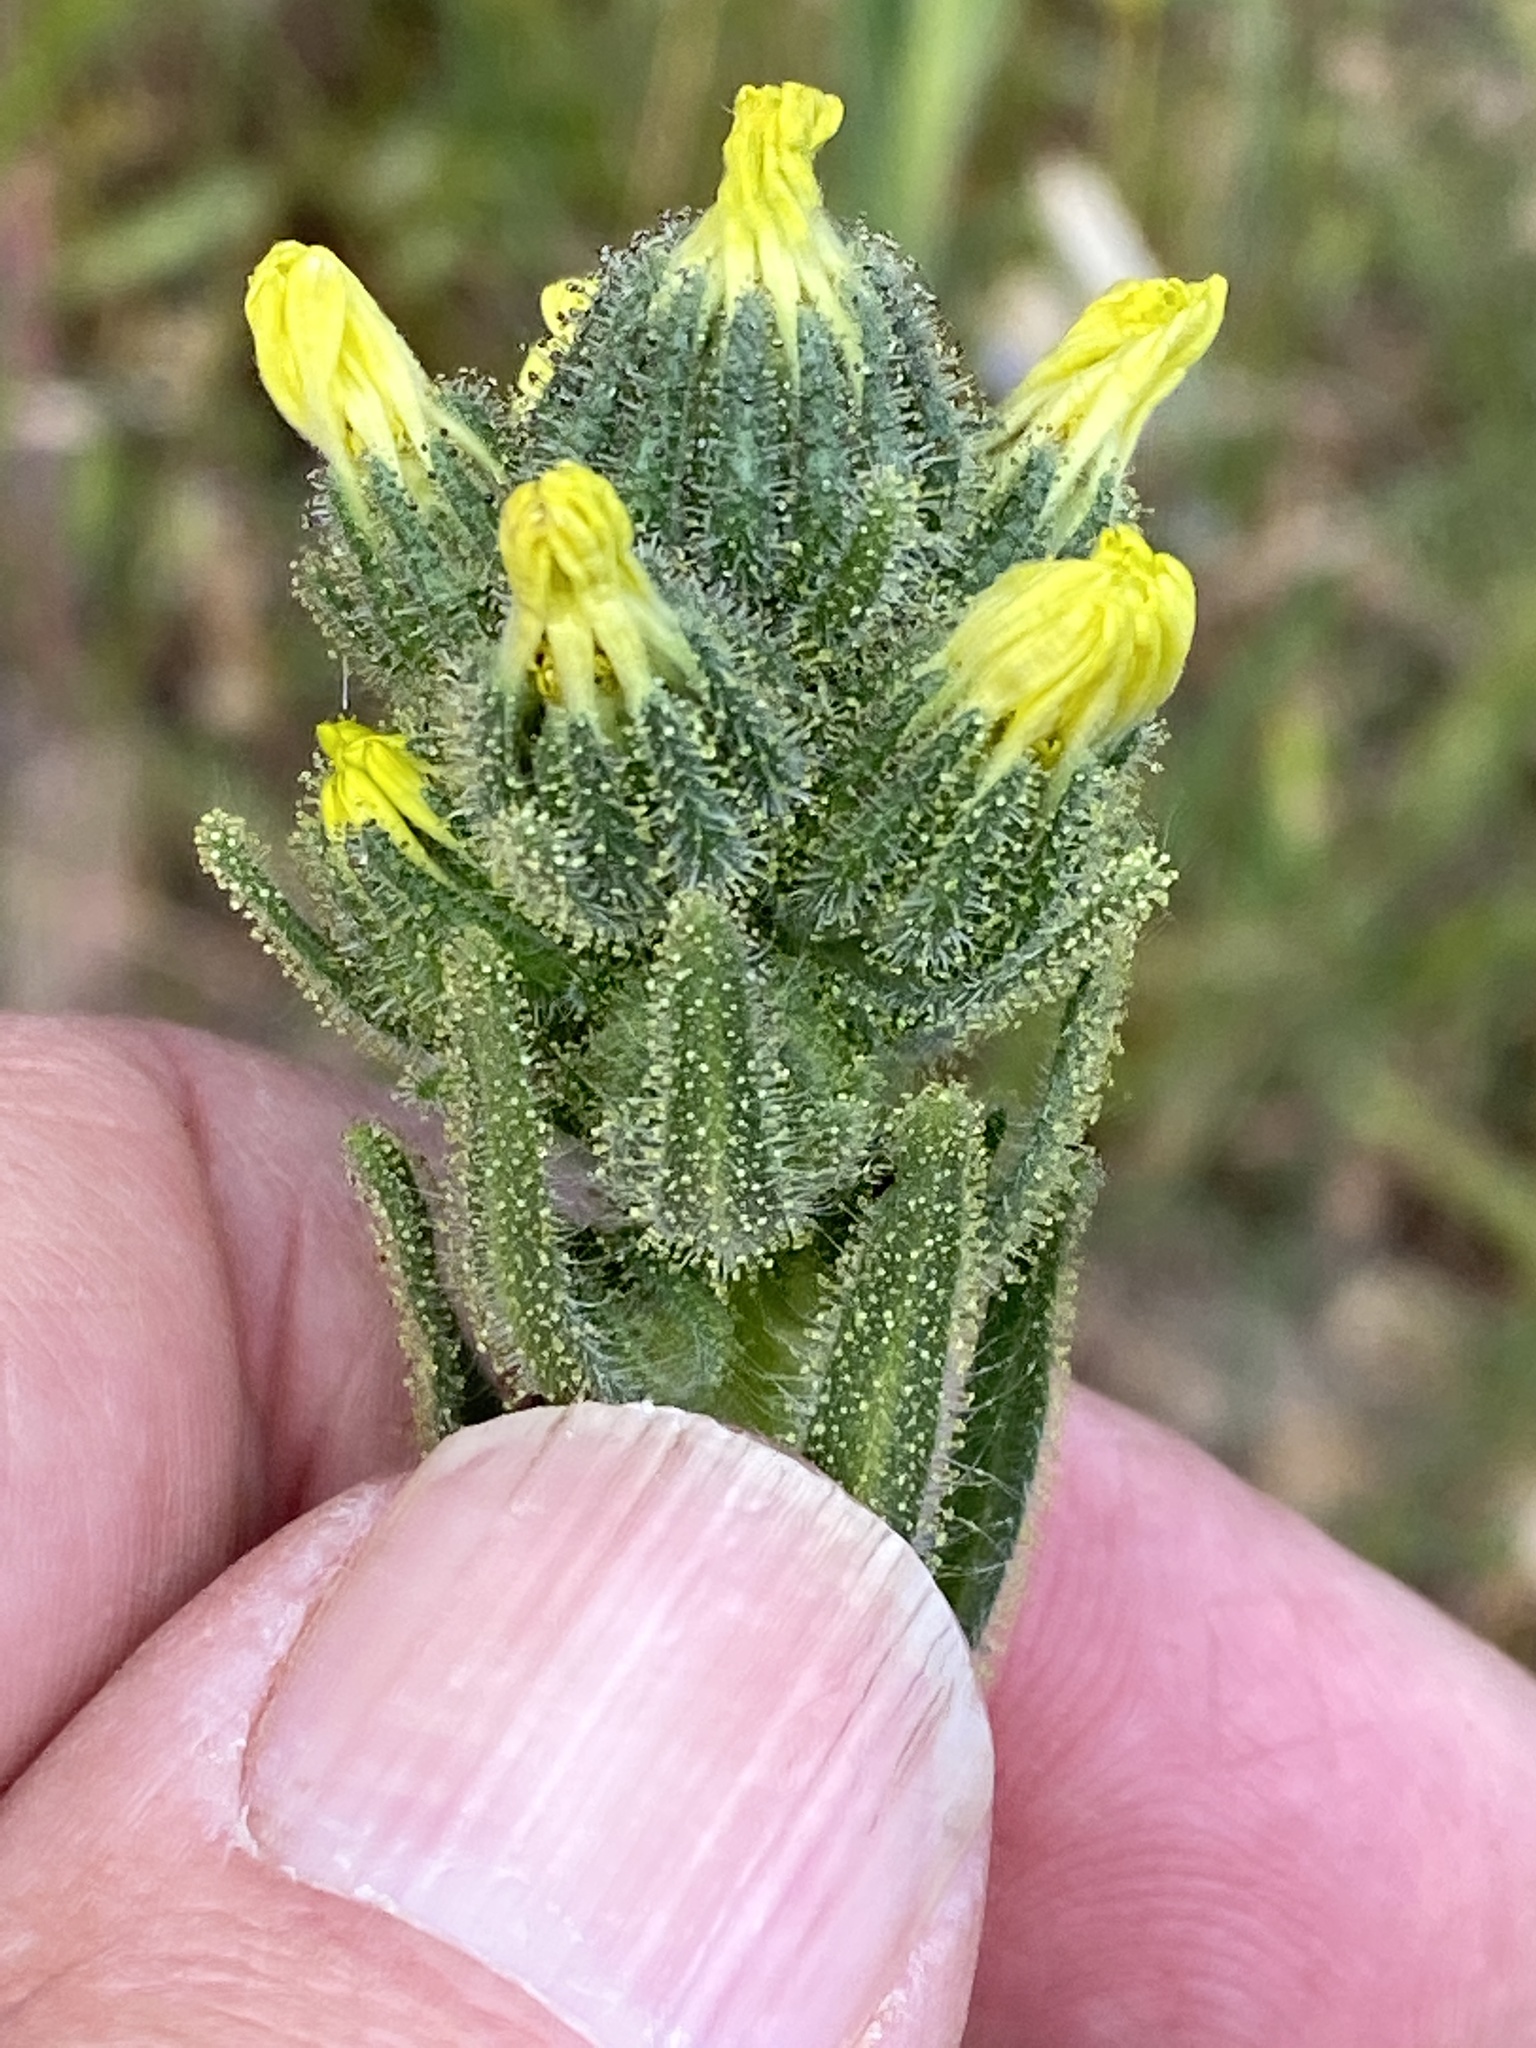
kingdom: Plantae
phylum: Tracheophyta
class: Magnoliopsida
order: Asterales
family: Asteraceae
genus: Madia
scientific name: Madia sativa
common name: Coast tarweed
